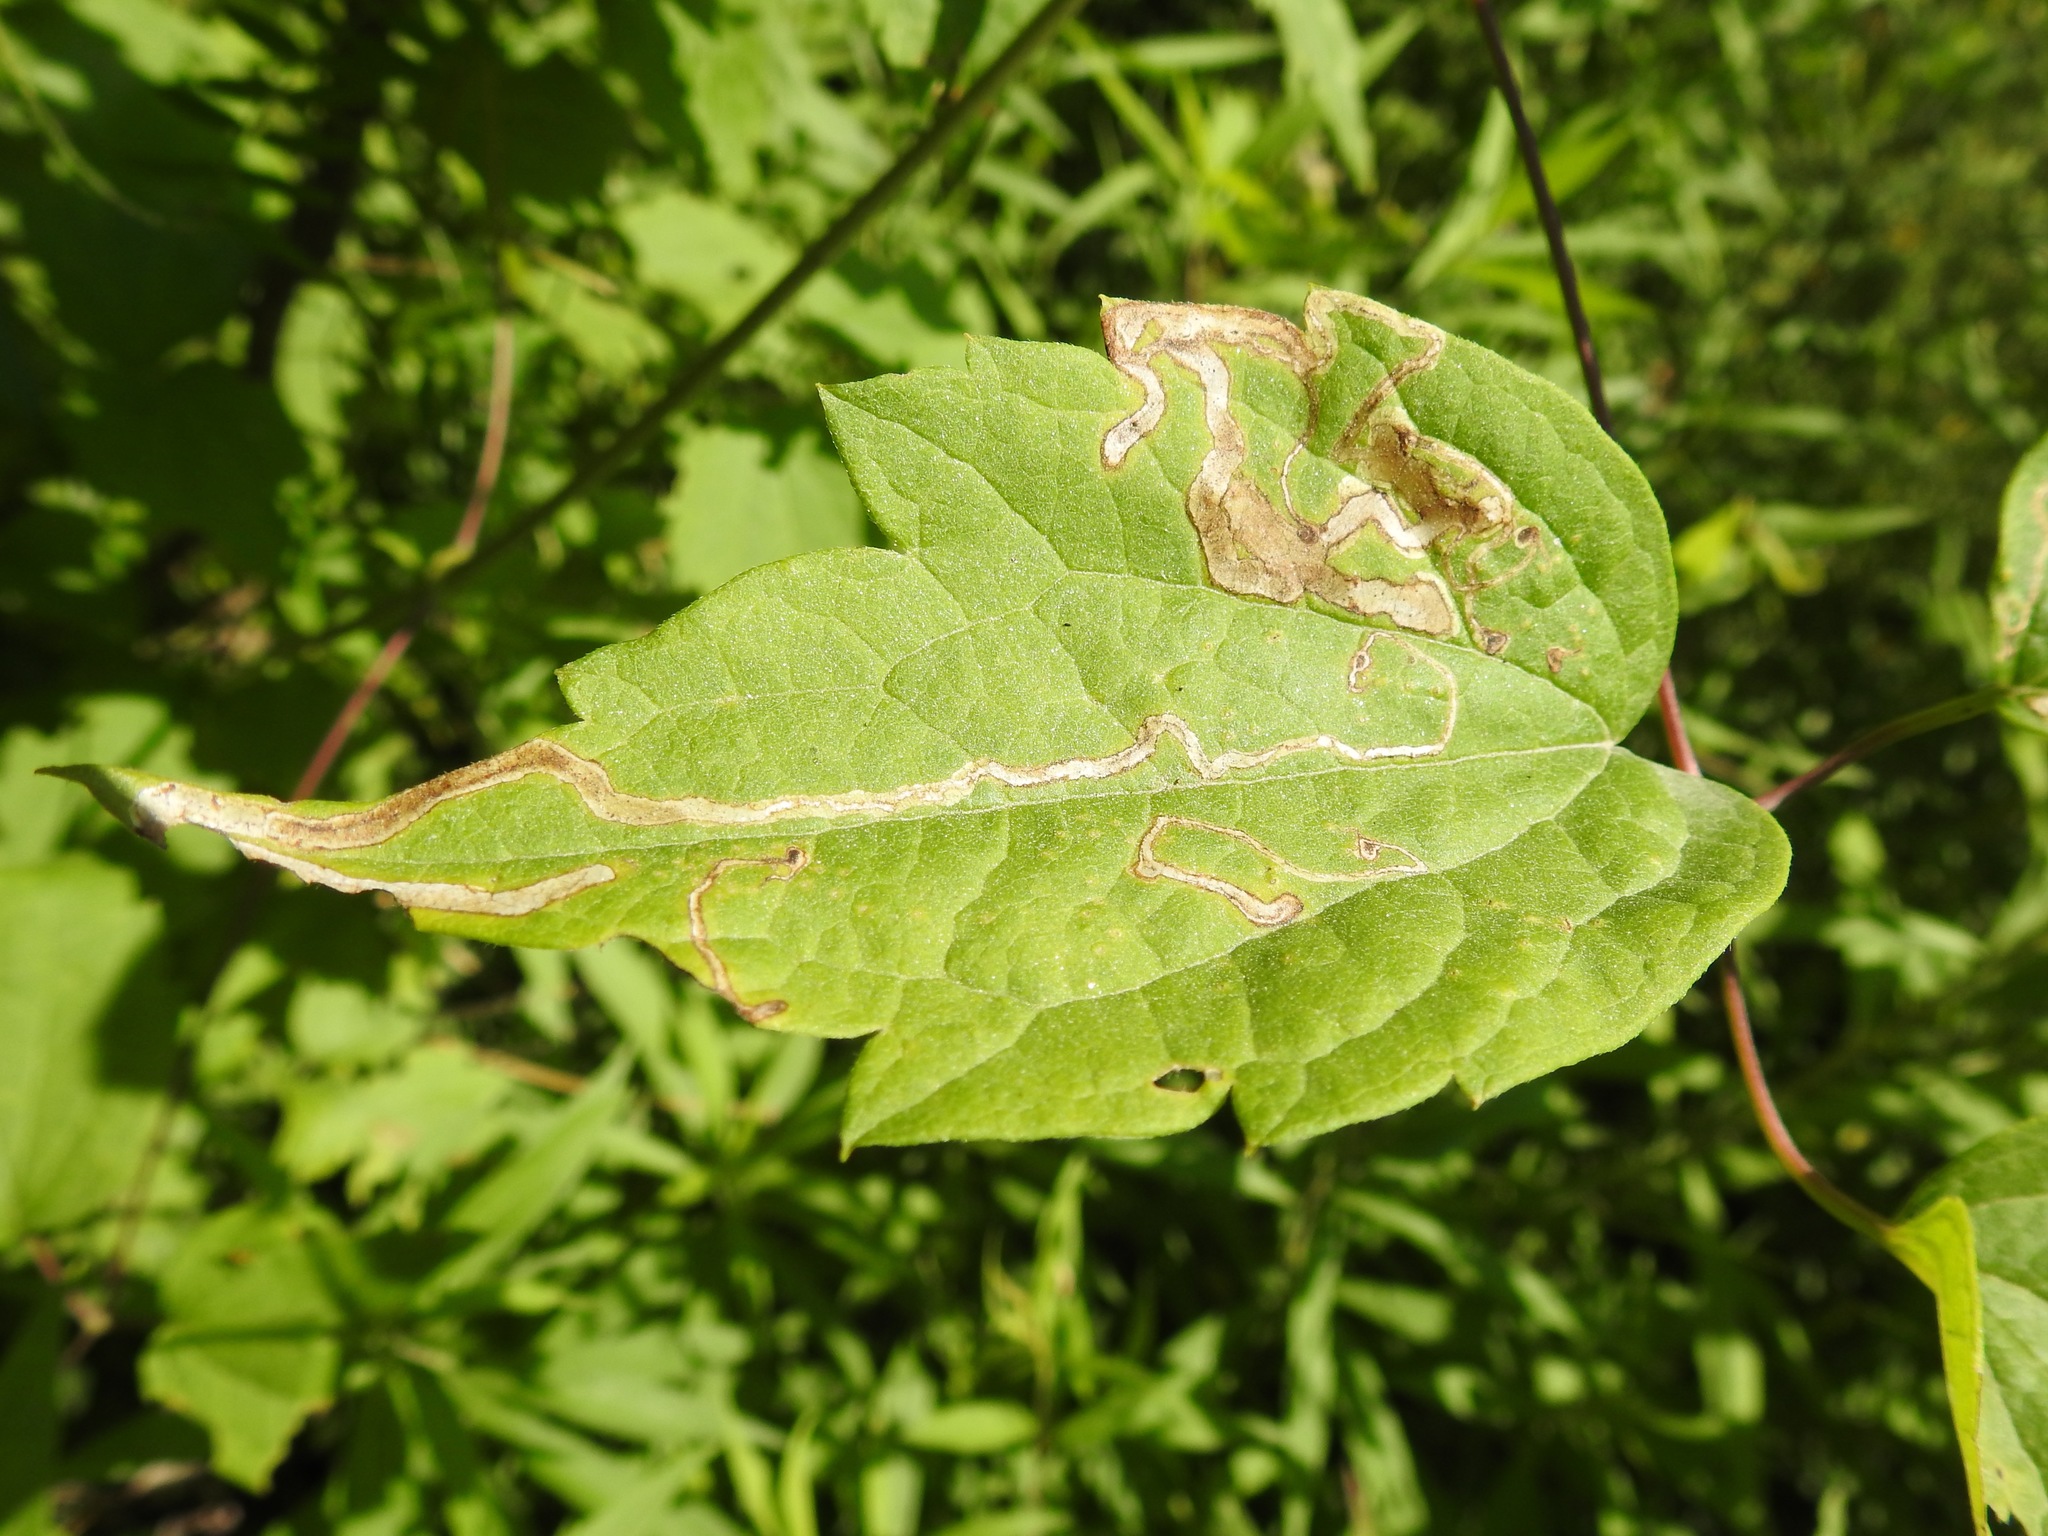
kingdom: Animalia
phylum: Arthropoda
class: Insecta
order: Diptera
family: Agromyzidae
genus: Phytomyza
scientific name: Phytomyza loewii
